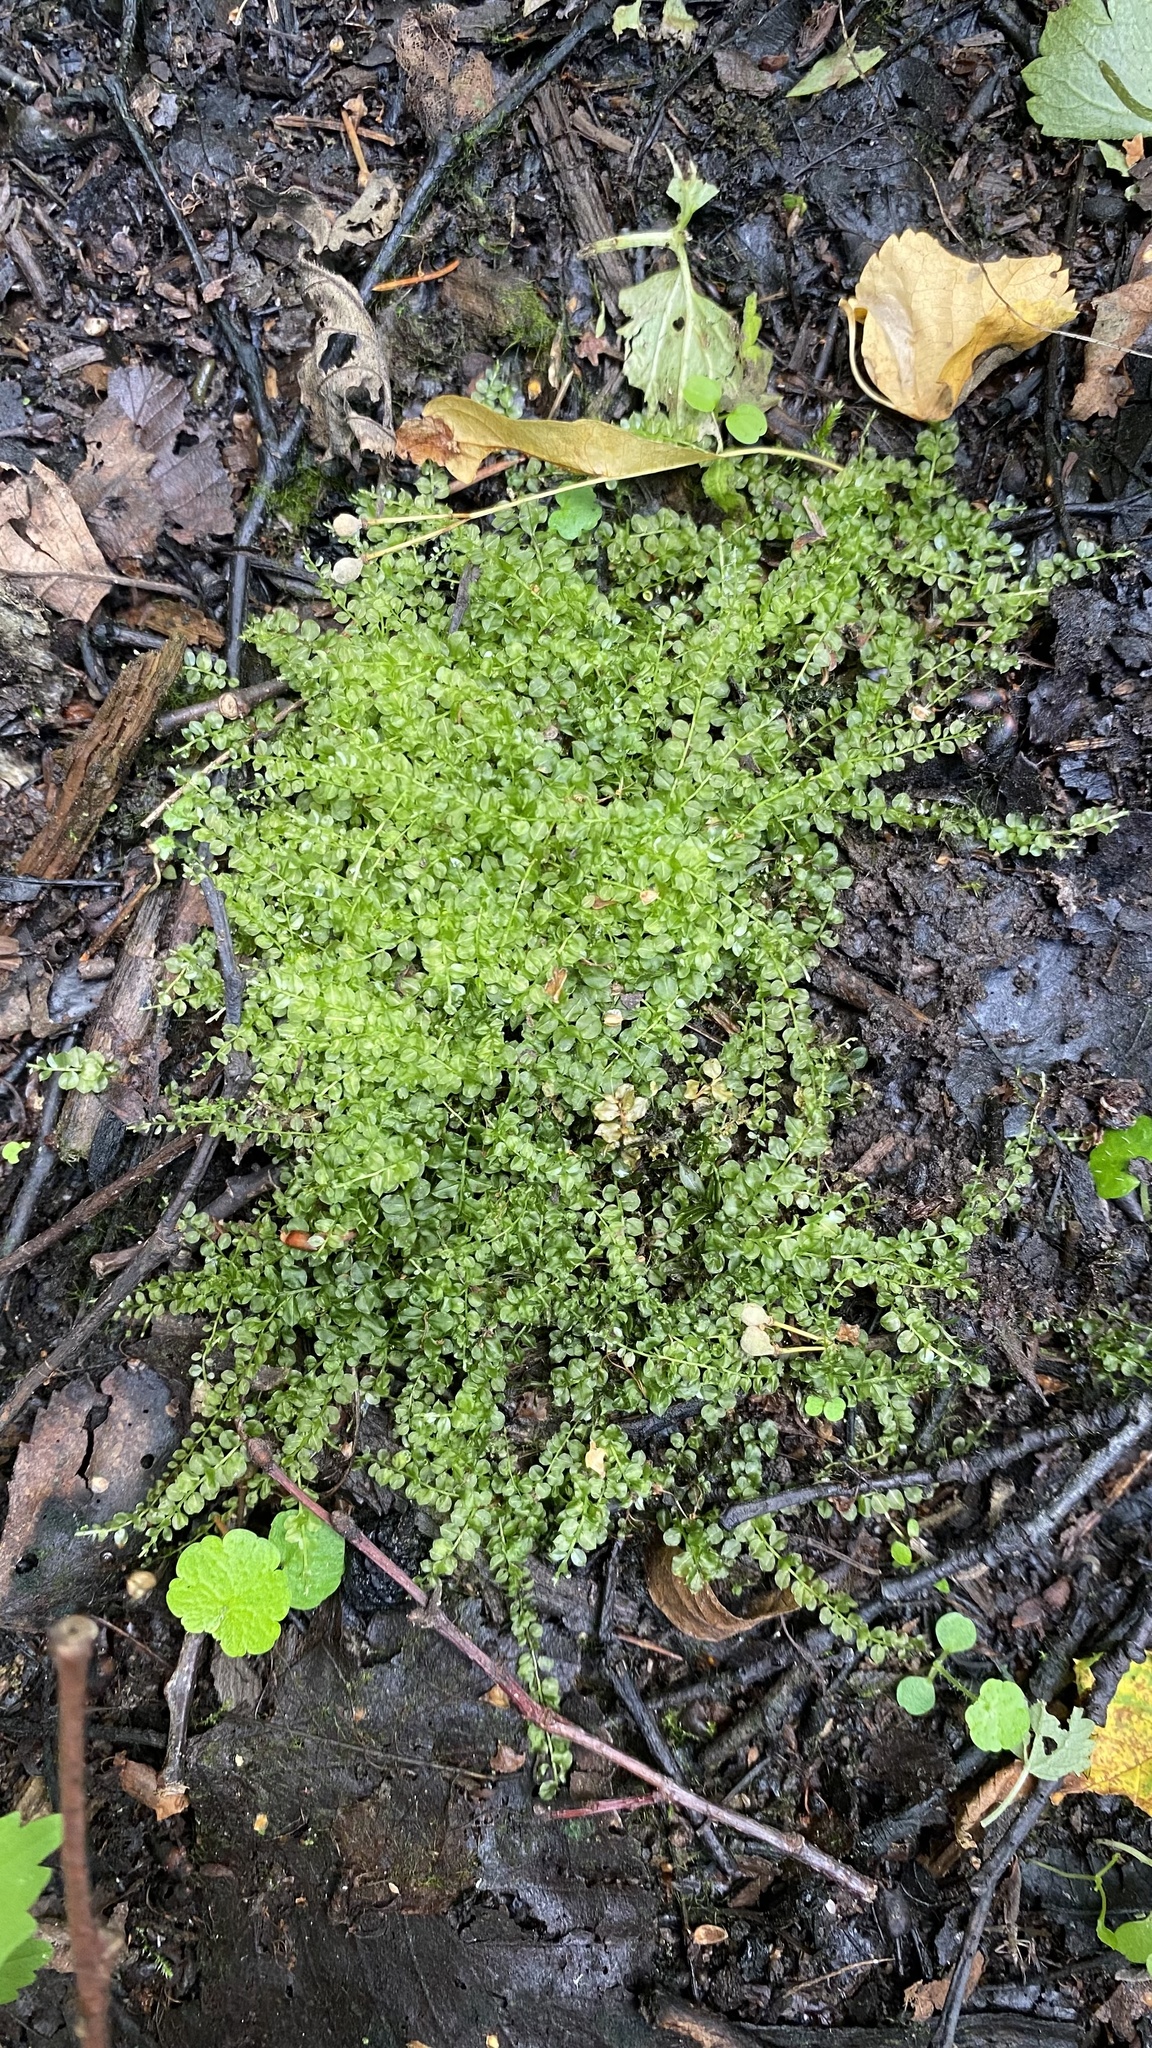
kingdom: Plantae
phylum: Bryophyta
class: Bryopsida
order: Bryales
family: Mniaceae
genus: Plagiomnium
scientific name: Plagiomnium cuspidatum
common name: Woodsy leafy moss
